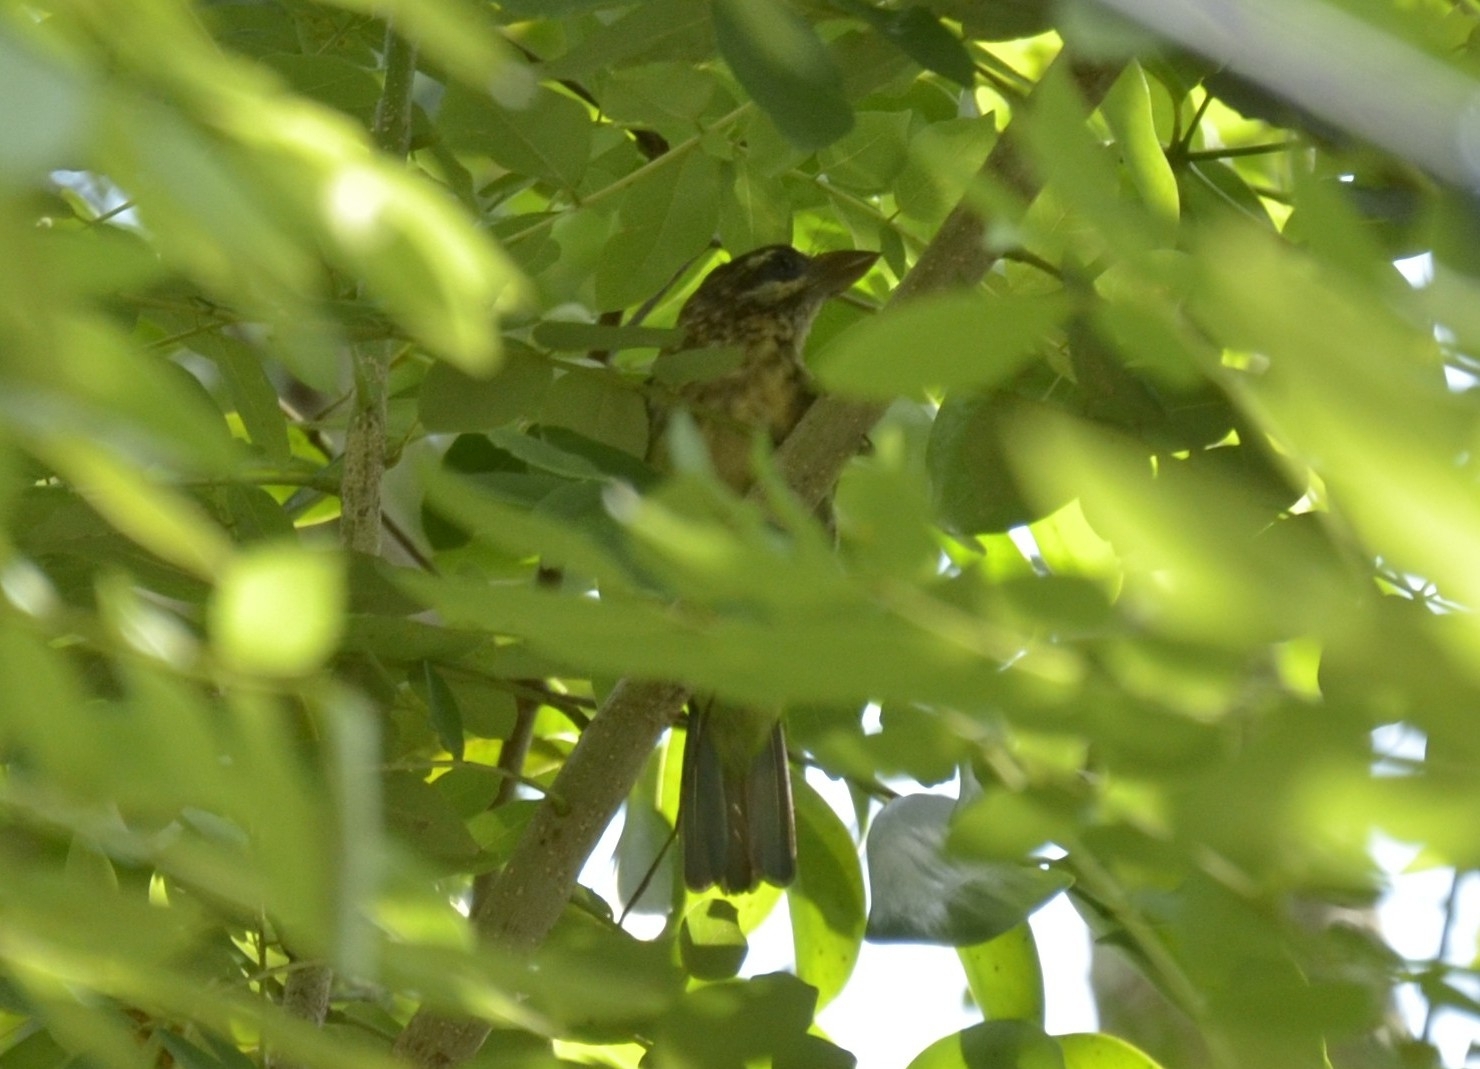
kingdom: Animalia
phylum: Chordata
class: Aves
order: Piciformes
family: Megalaimidae
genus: Psilopogon
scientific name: Psilopogon viridis
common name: White-cheeked barbet
